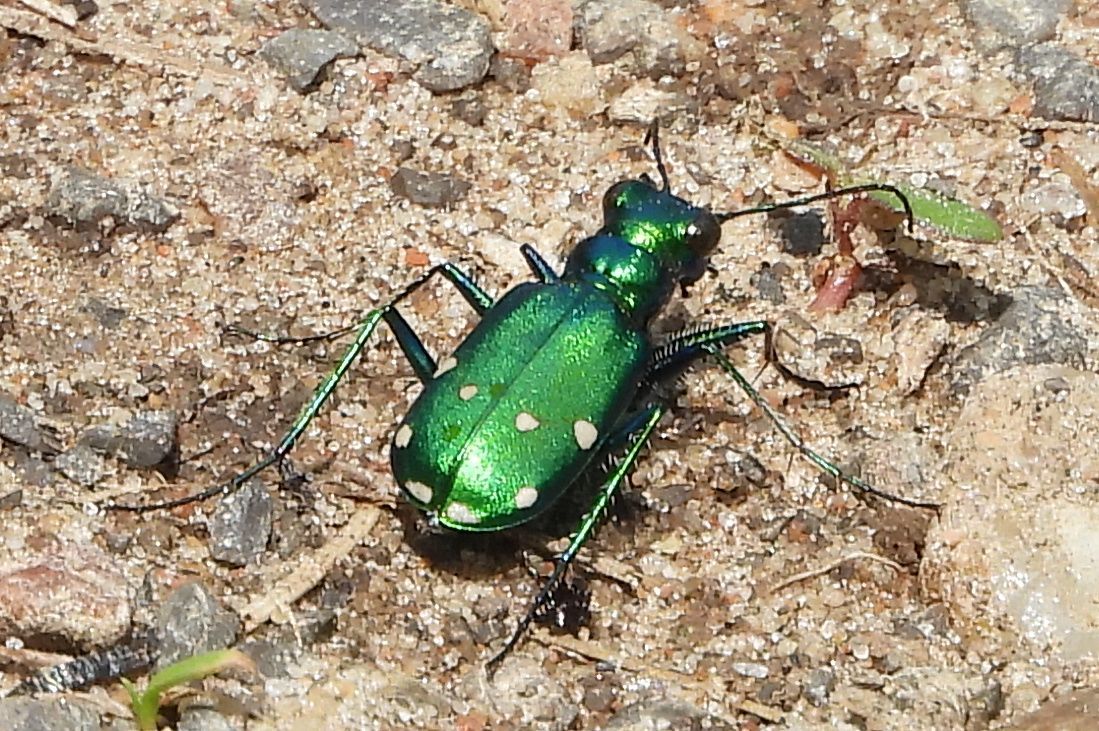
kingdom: Animalia
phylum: Arthropoda
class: Insecta
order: Coleoptera
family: Carabidae
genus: Cicindela
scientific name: Cicindela sexguttata
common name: Six-spotted tiger beetle
